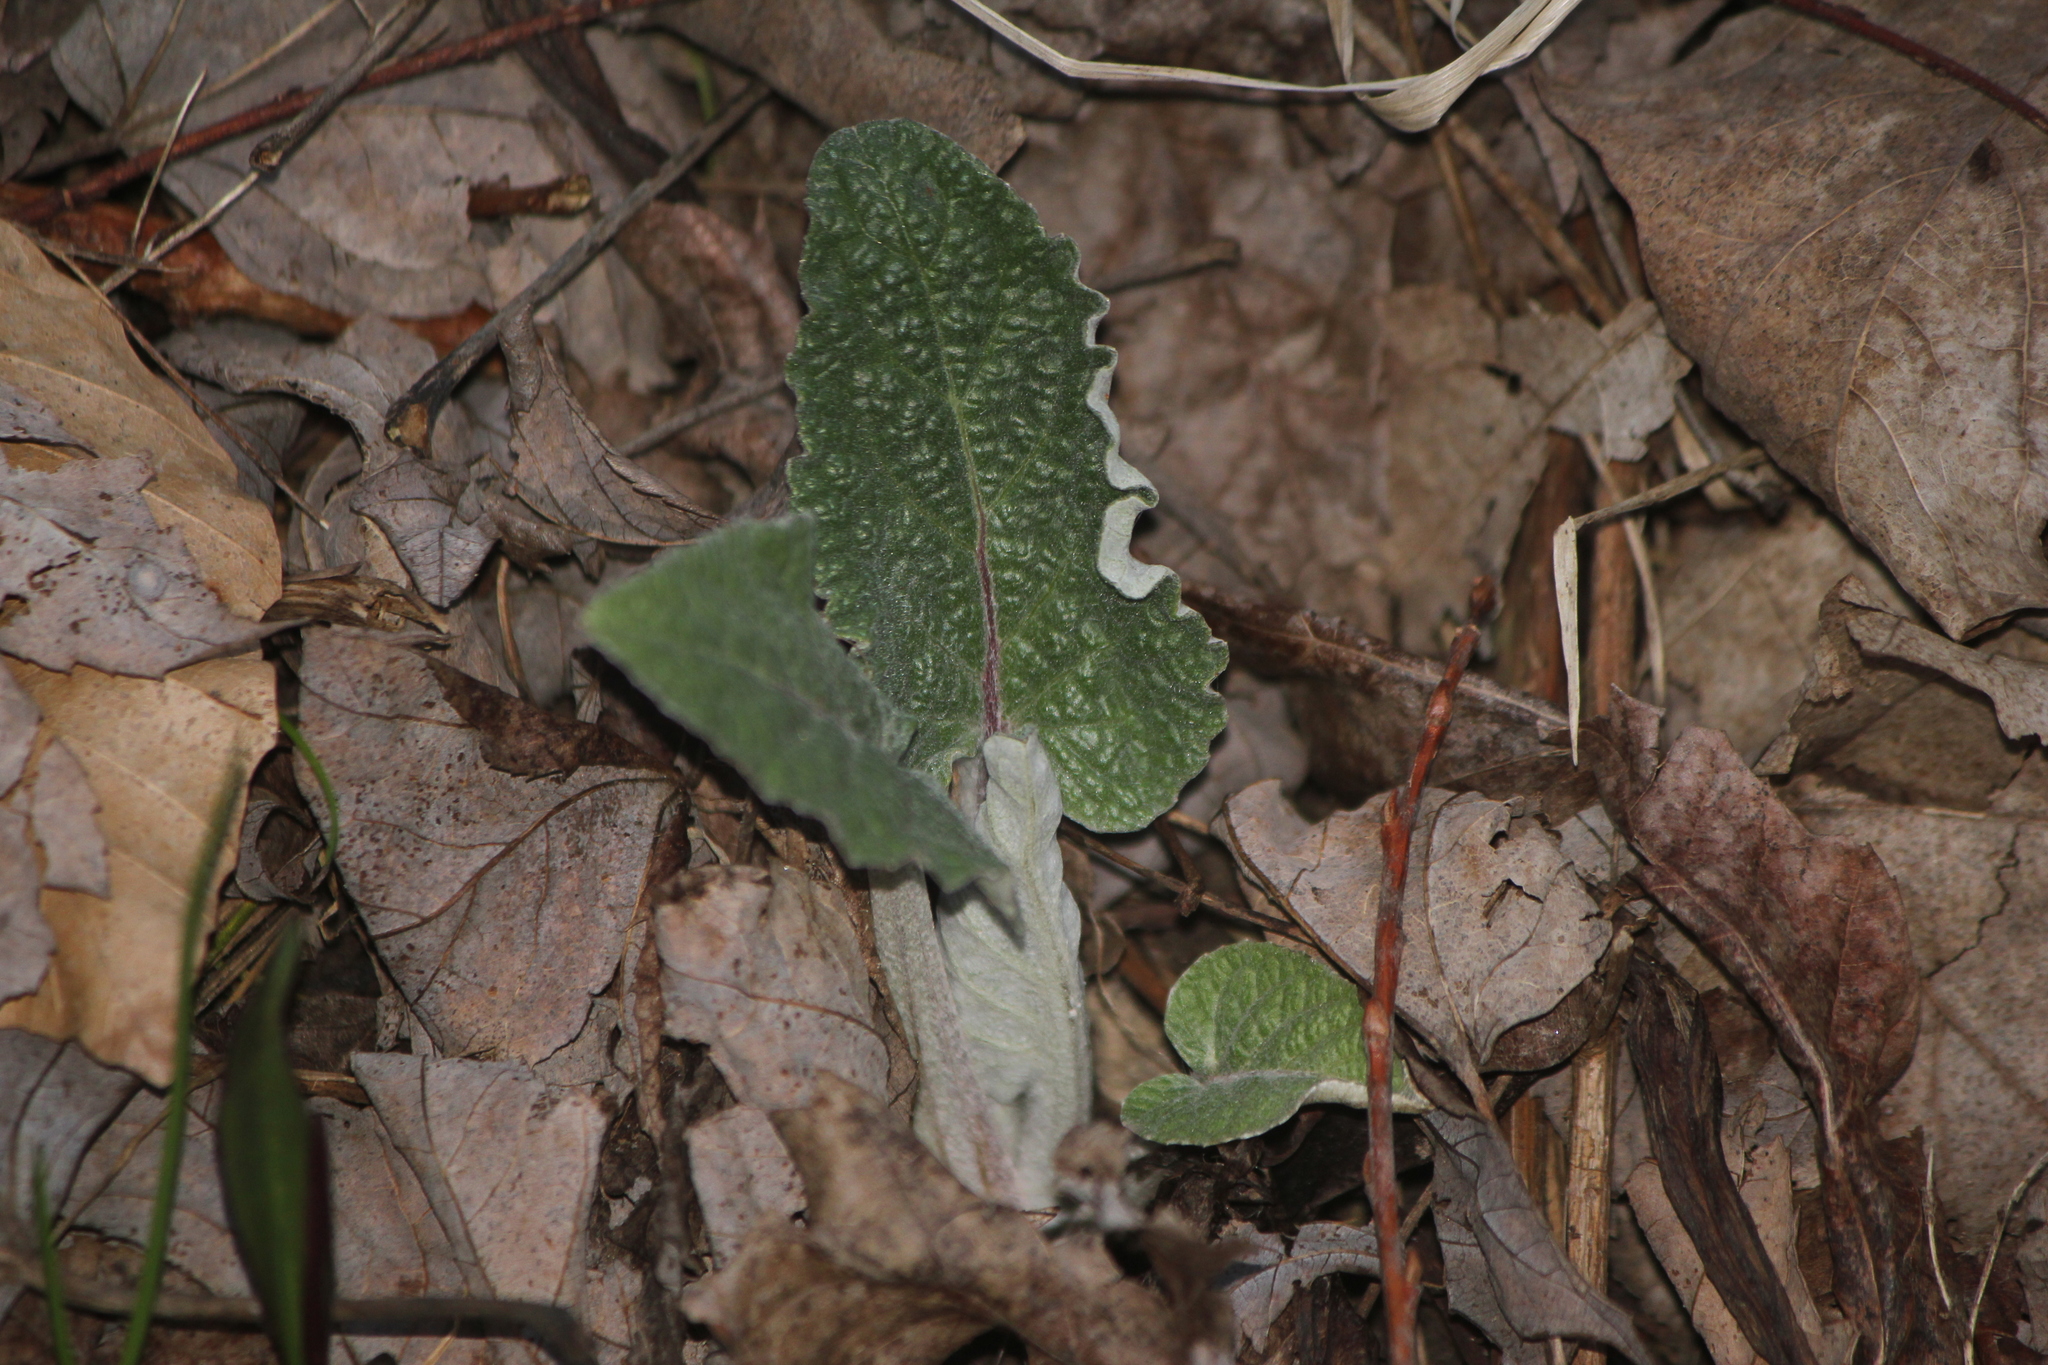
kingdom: Plantae
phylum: Tracheophyta
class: Magnoliopsida
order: Asterales
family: Asteraceae
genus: Arctium
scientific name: Arctium
